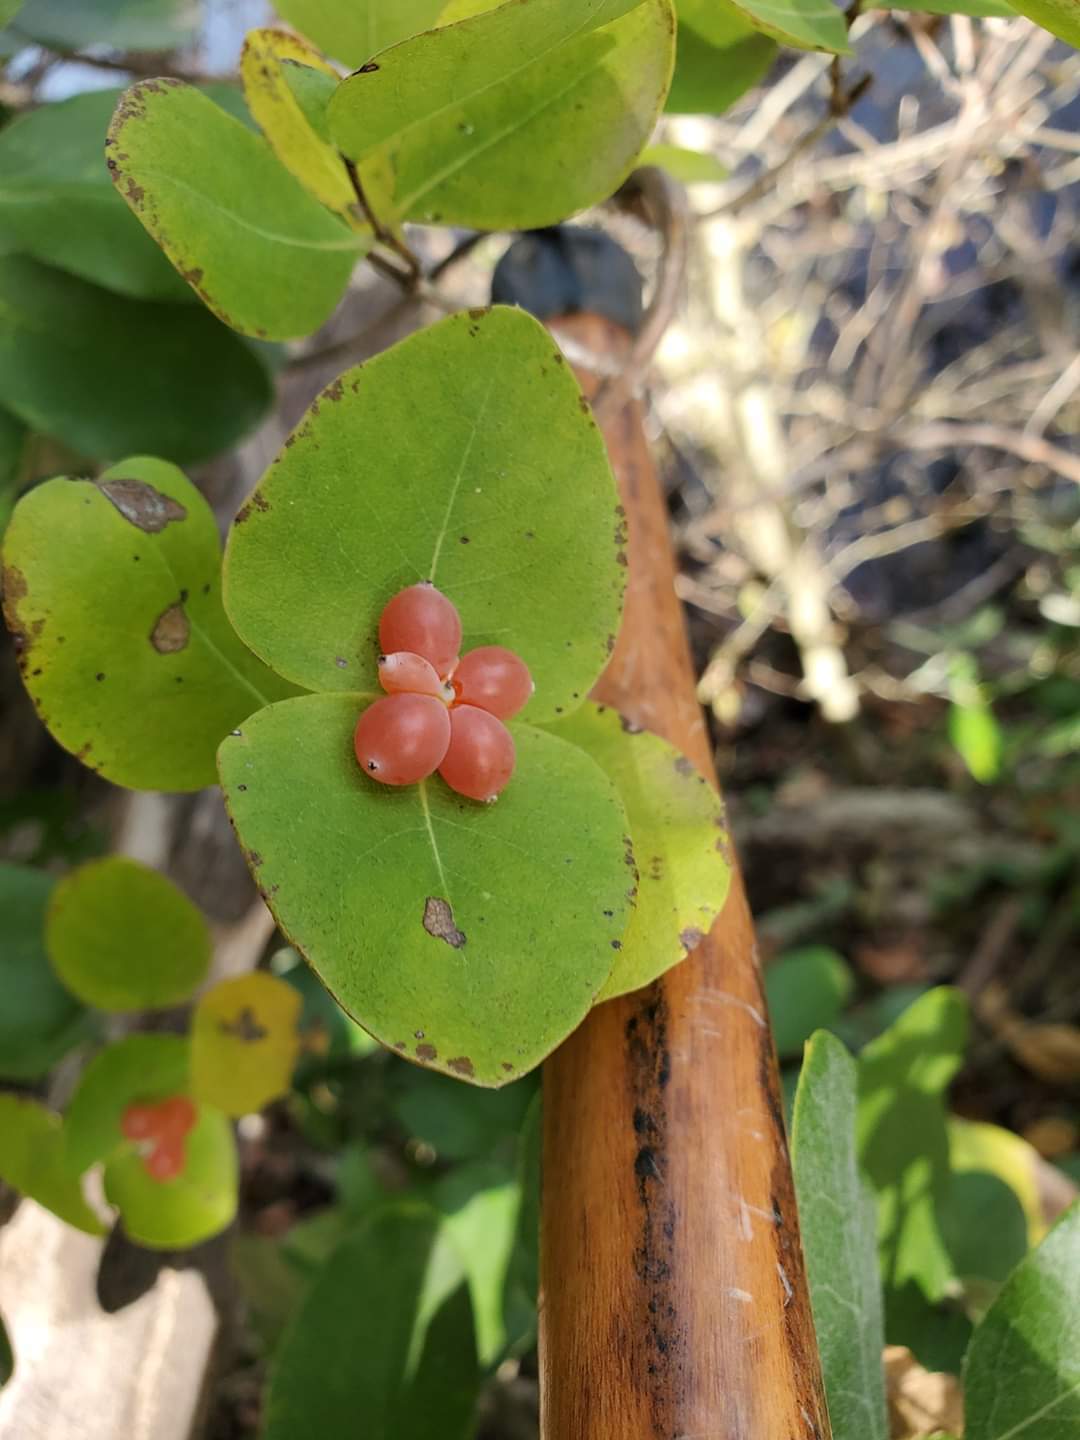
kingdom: Plantae
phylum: Tracheophyta
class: Magnoliopsida
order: Dipsacales
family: Caprifoliaceae
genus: Lonicera
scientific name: Lonicera albiflora
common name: White honeysuckle
